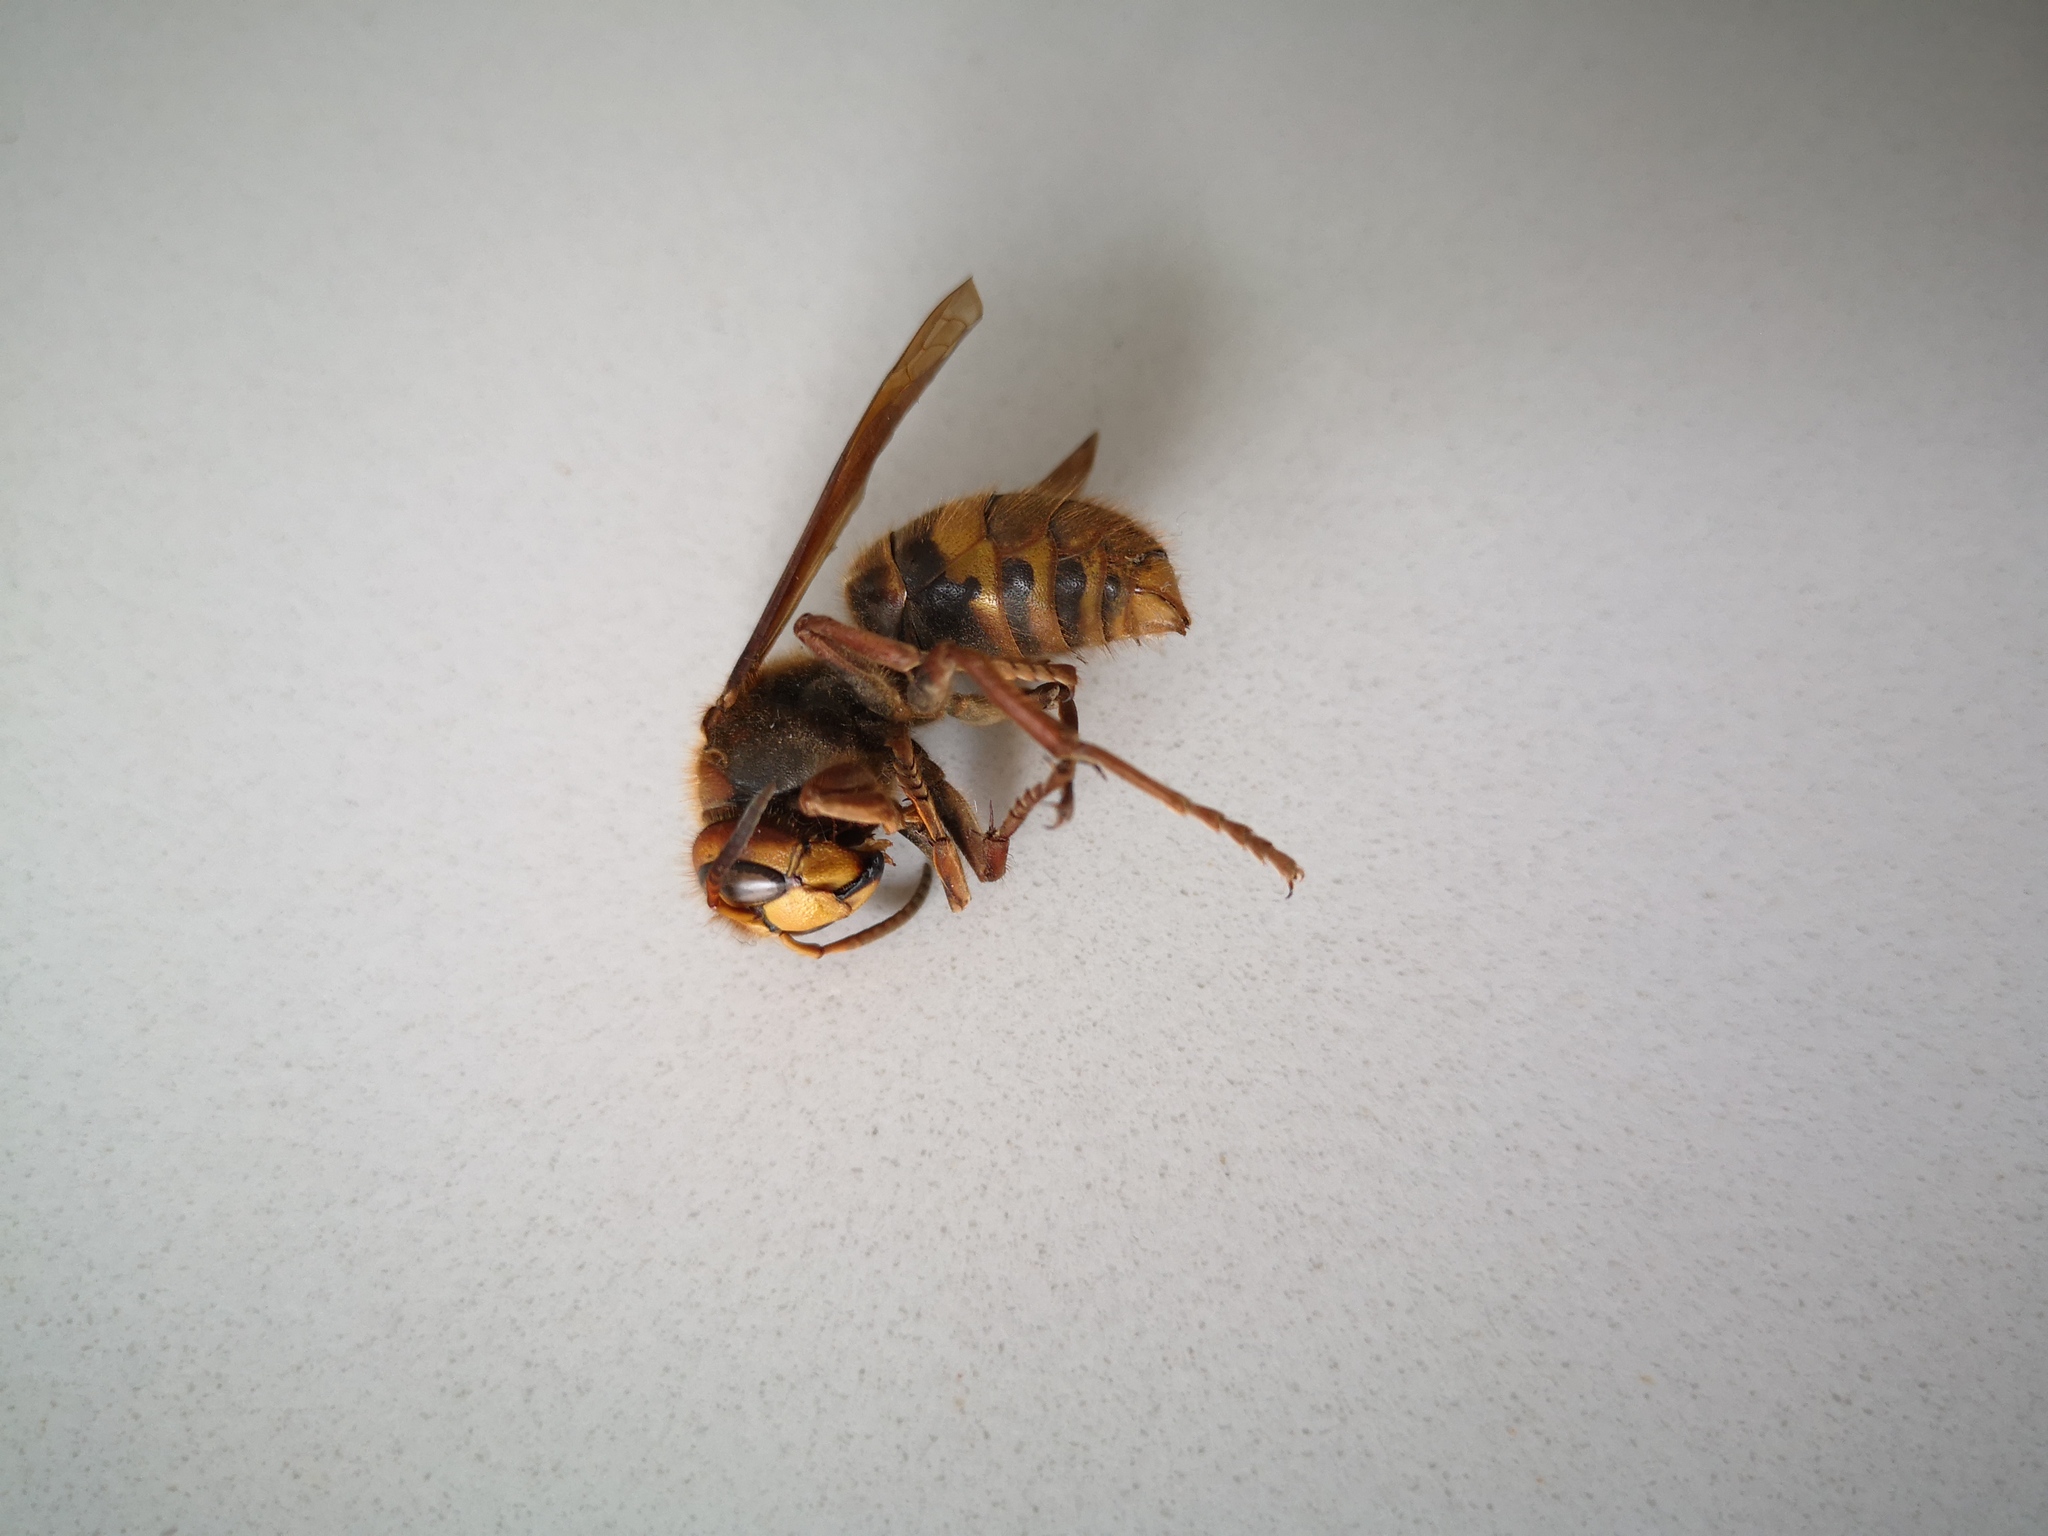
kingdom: Animalia
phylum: Arthropoda
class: Insecta
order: Hymenoptera
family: Vespidae
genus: Vespa
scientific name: Vespa crabro
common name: Hornet
